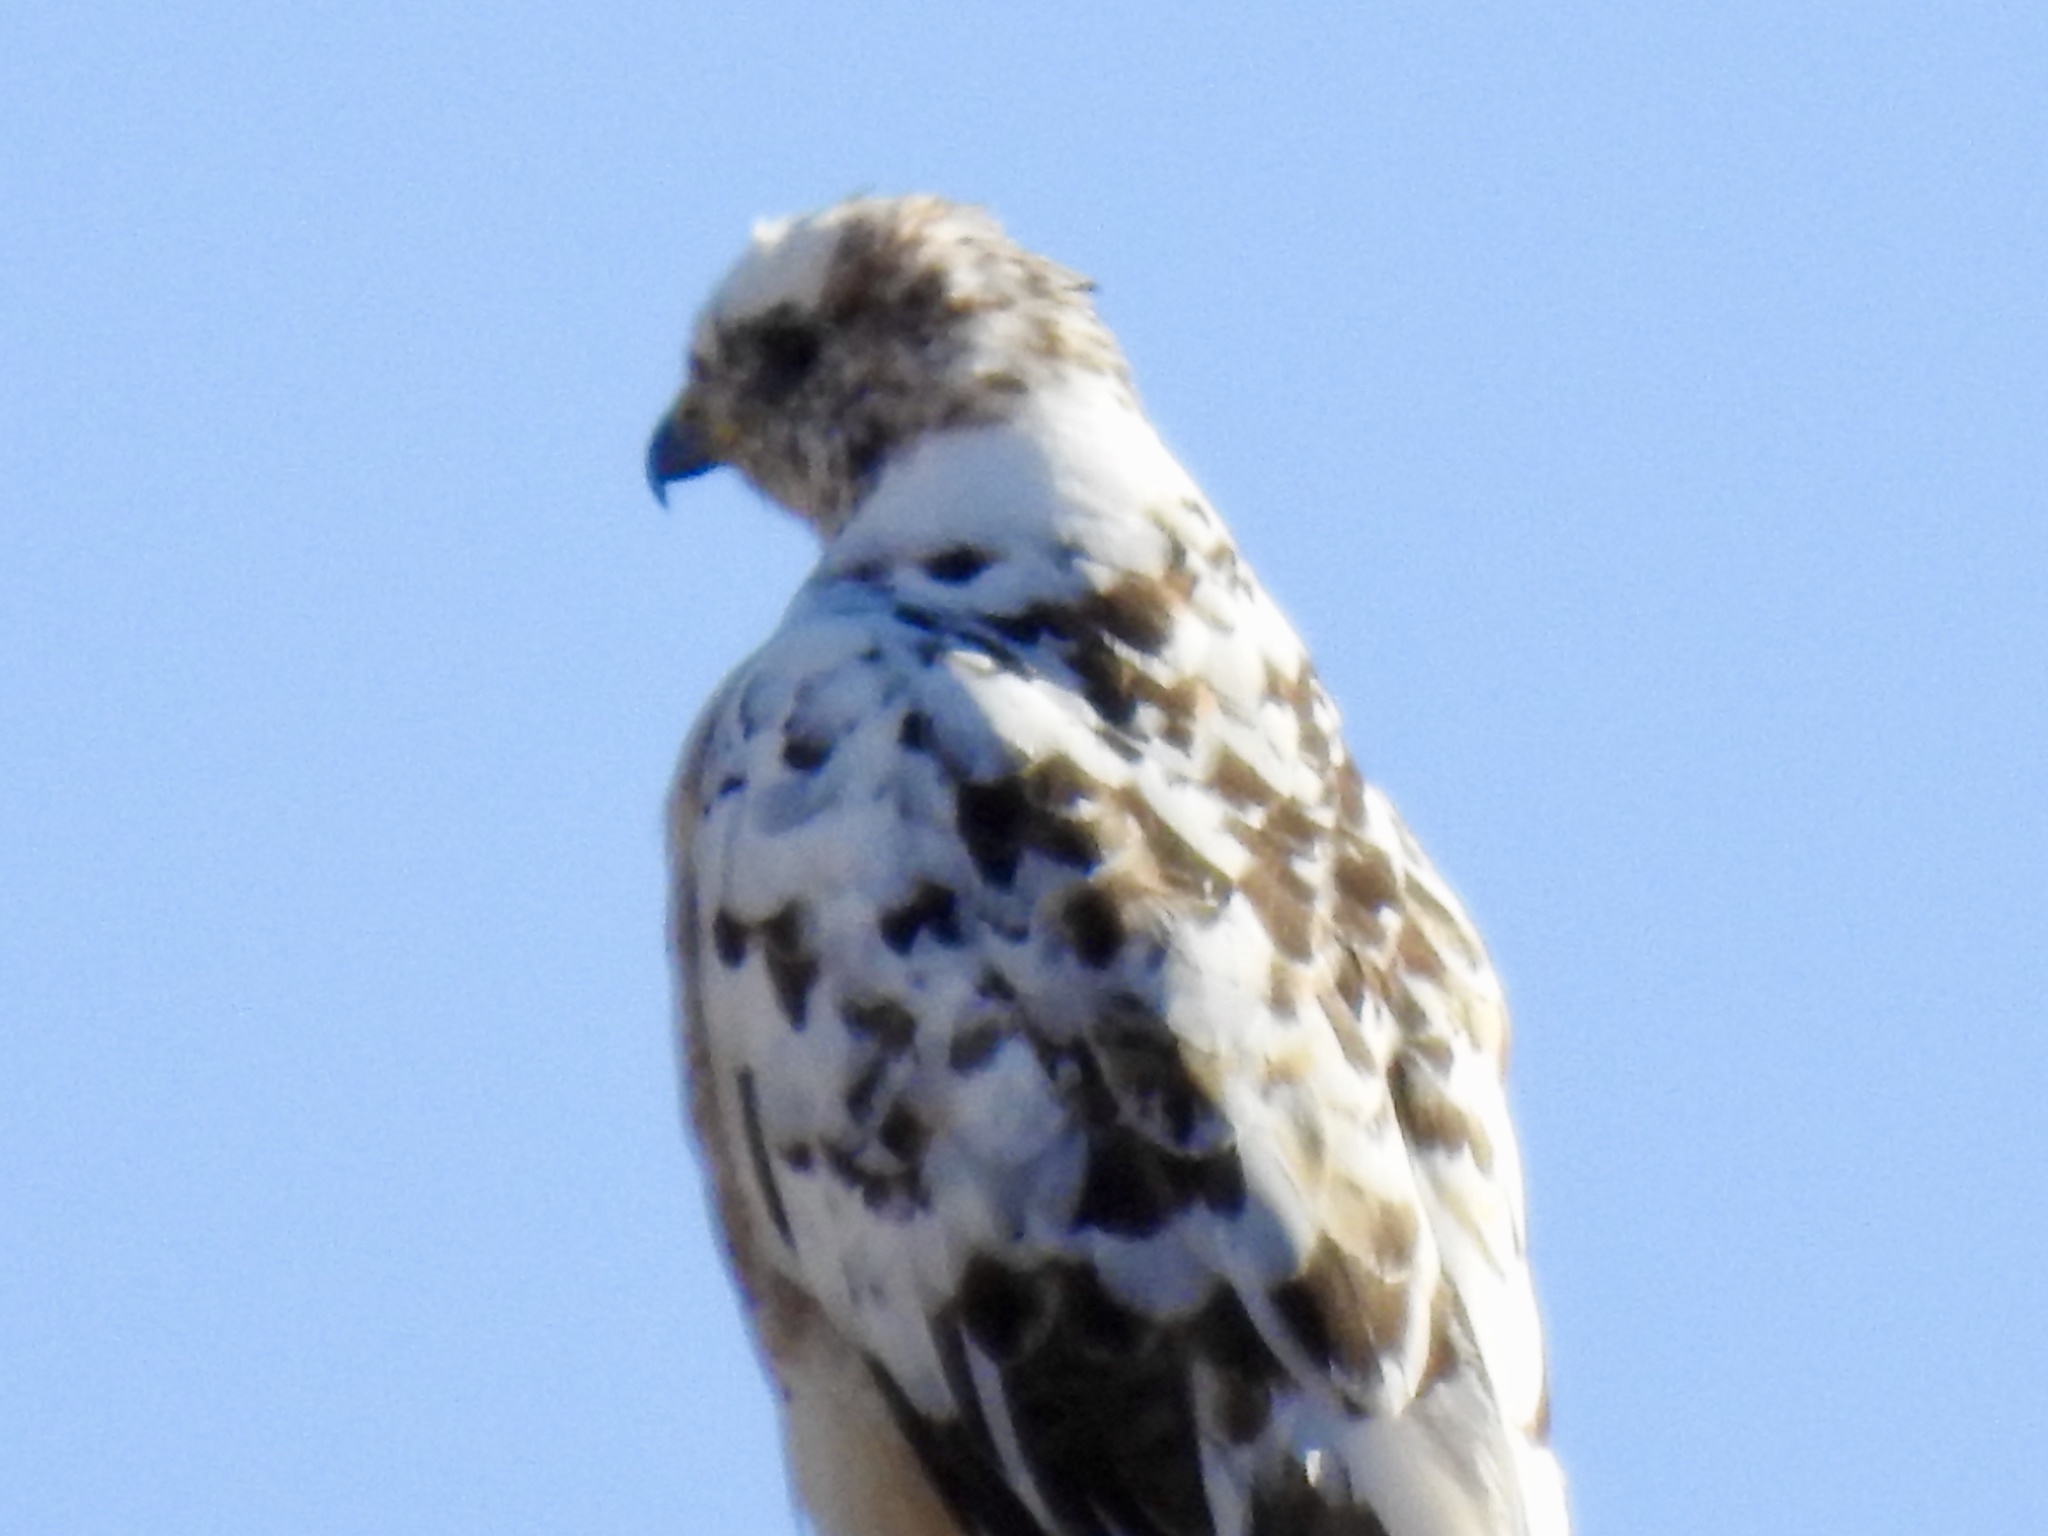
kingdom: Animalia
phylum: Chordata
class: Aves
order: Accipitriformes
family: Accipitridae
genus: Buteo
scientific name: Buteo jamaicensis
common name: Red-tailed hawk
